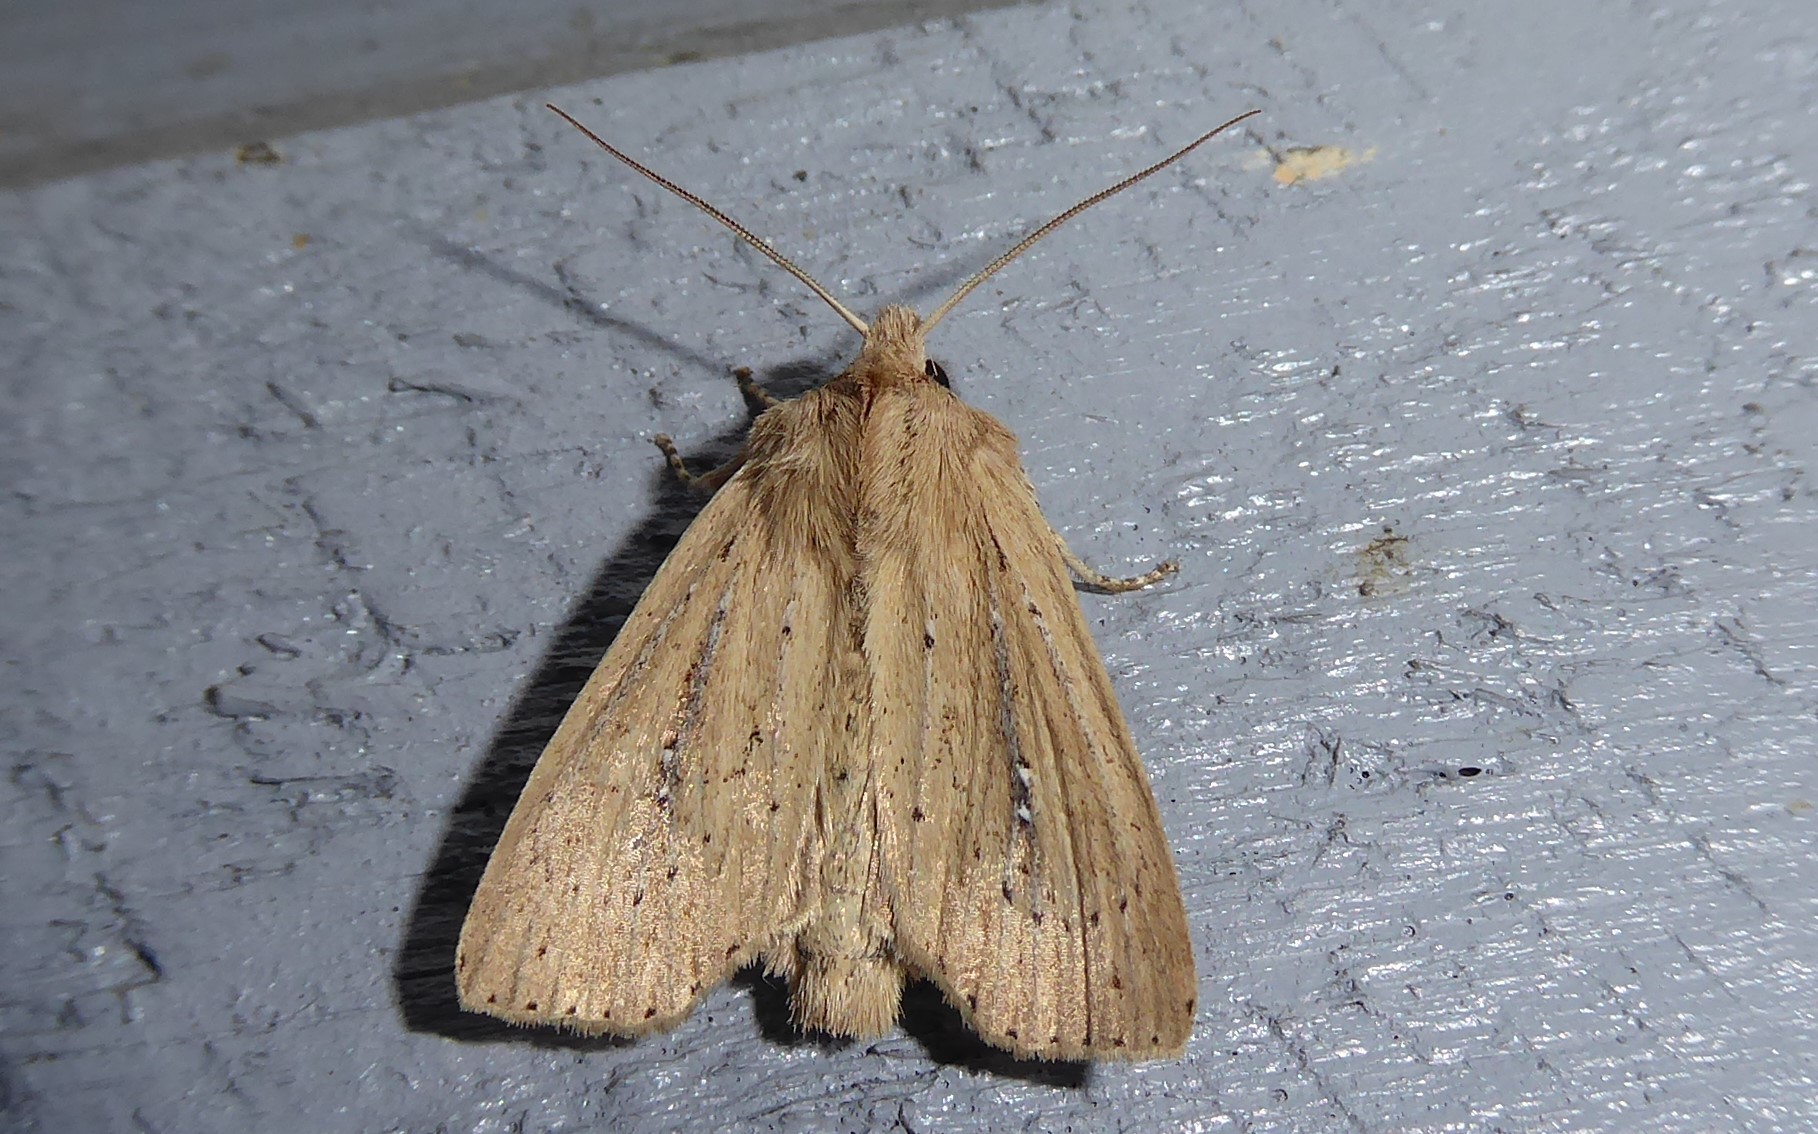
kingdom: Animalia
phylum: Arthropoda
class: Insecta
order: Lepidoptera
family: Noctuidae
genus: Ichneutica
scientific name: Ichneutica
